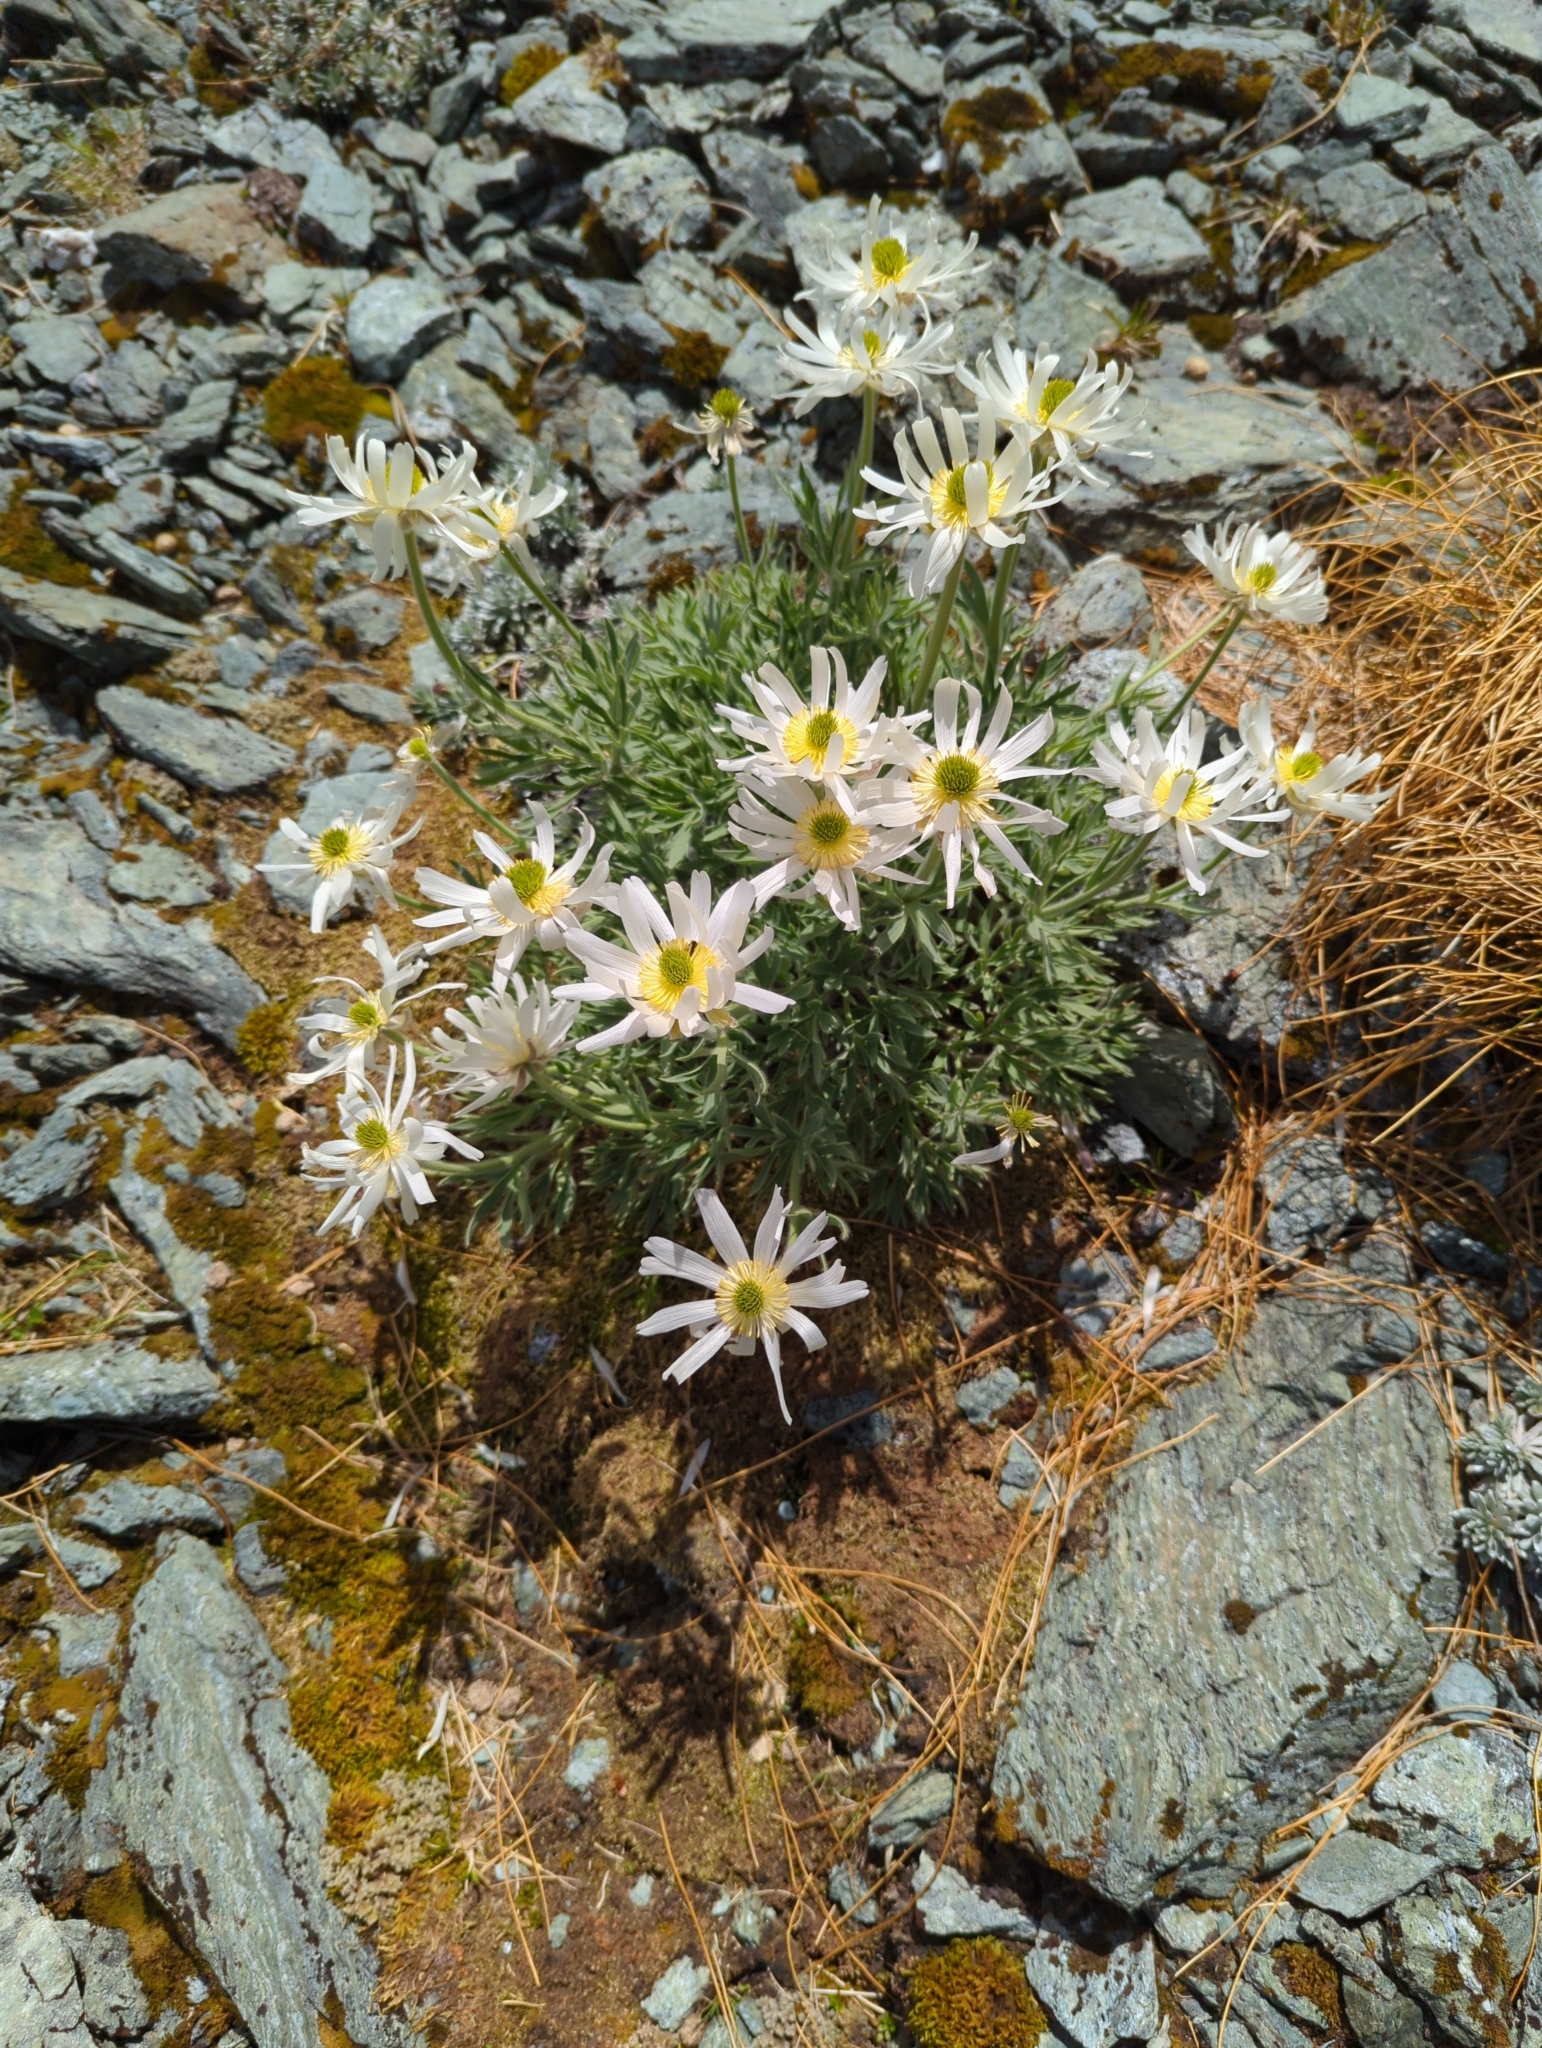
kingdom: Plantae
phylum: Tracheophyta
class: Magnoliopsida
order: Ranunculales
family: Ranunculaceae
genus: Ranunculus
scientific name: Ranunculus buchananii
